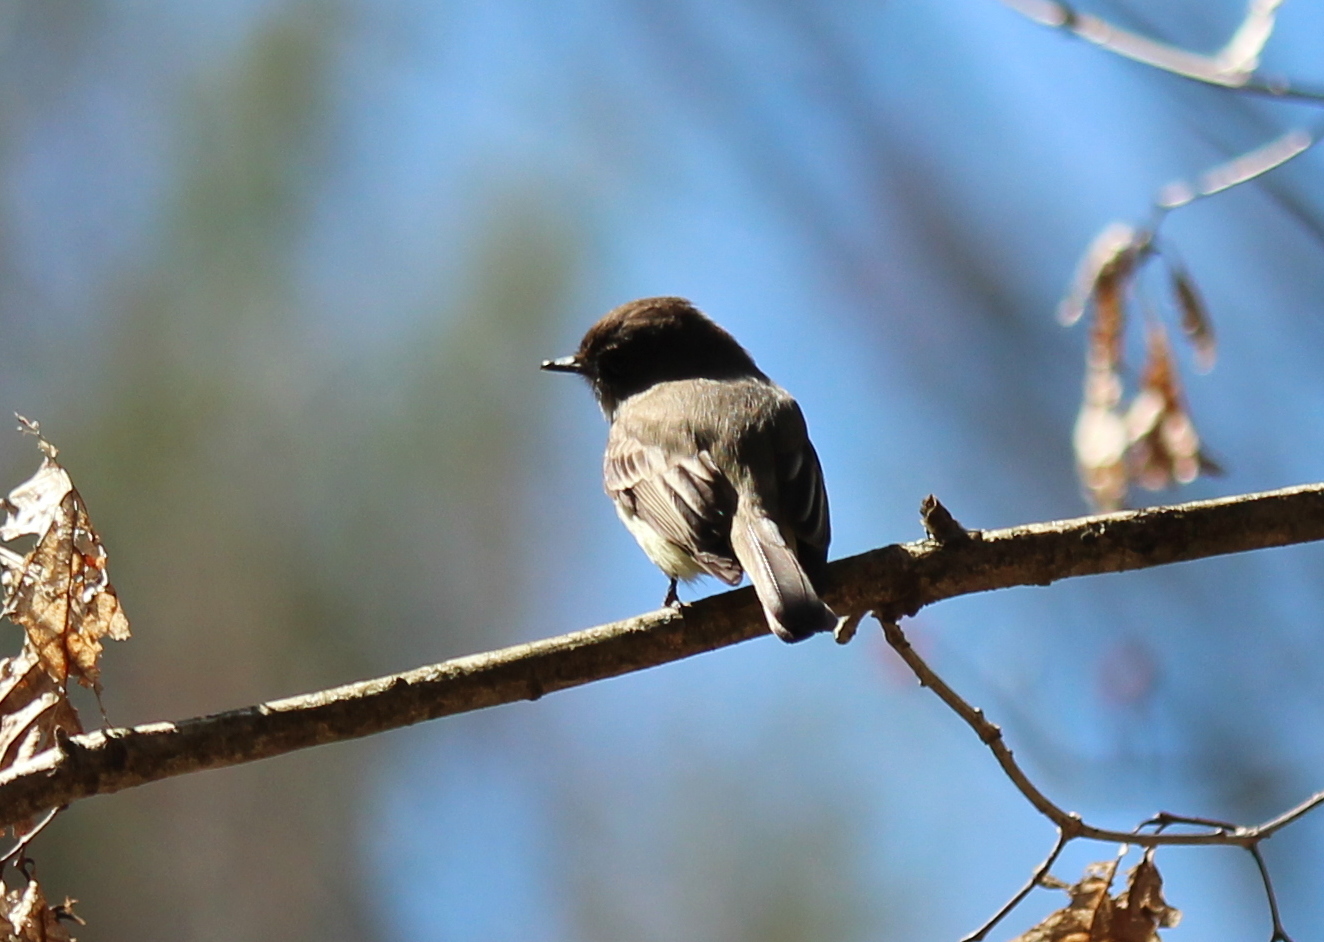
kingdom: Animalia
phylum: Chordata
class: Aves
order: Passeriformes
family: Tyrannidae
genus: Sayornis
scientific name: Sayornis phoebe
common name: Eastern phoebe
